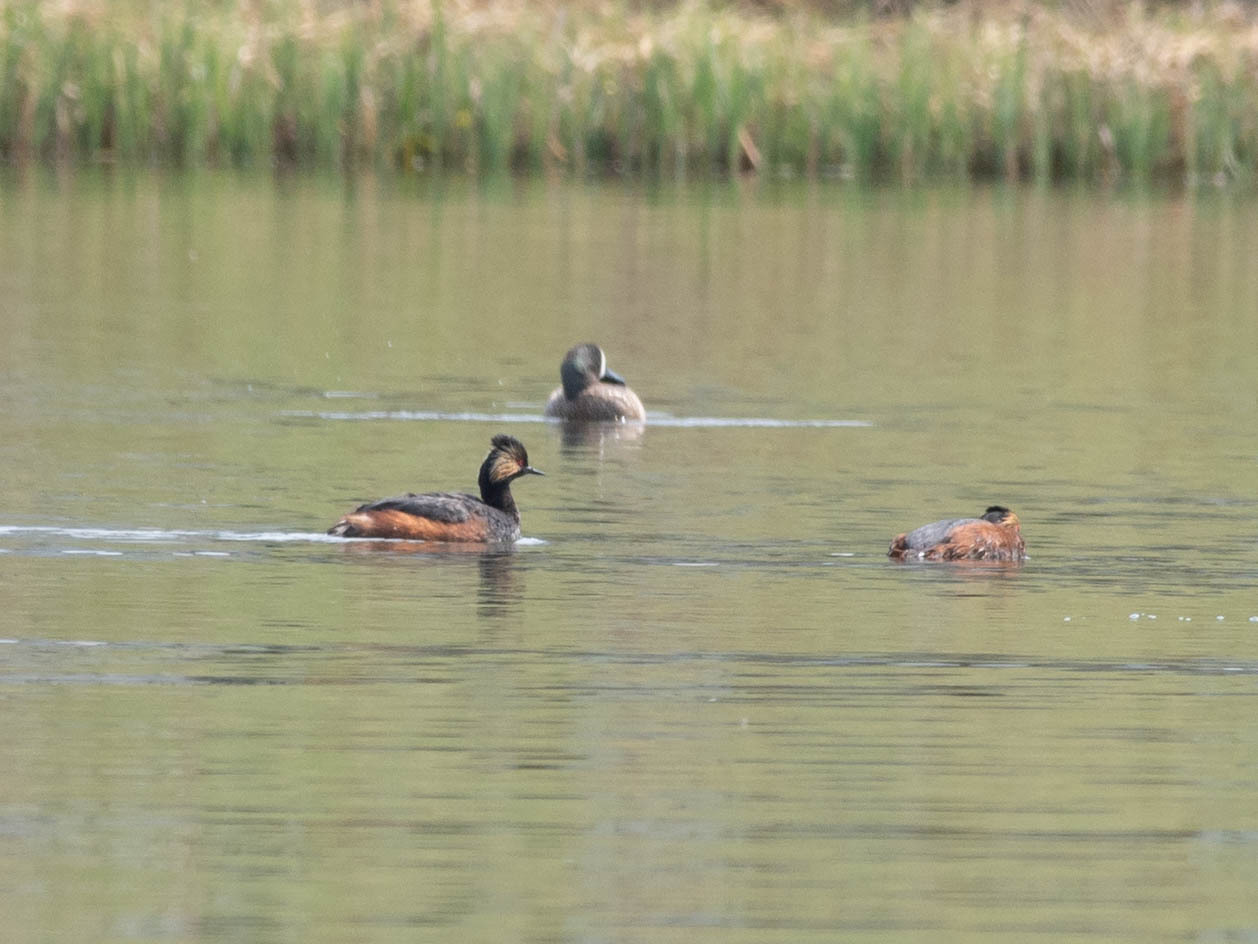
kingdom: Animalia
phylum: Chordata
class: Aves
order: Podicipediformes
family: Podicipedidae
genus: Podiceps
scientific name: Podiceps nigricollis
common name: Black-necked grebe
